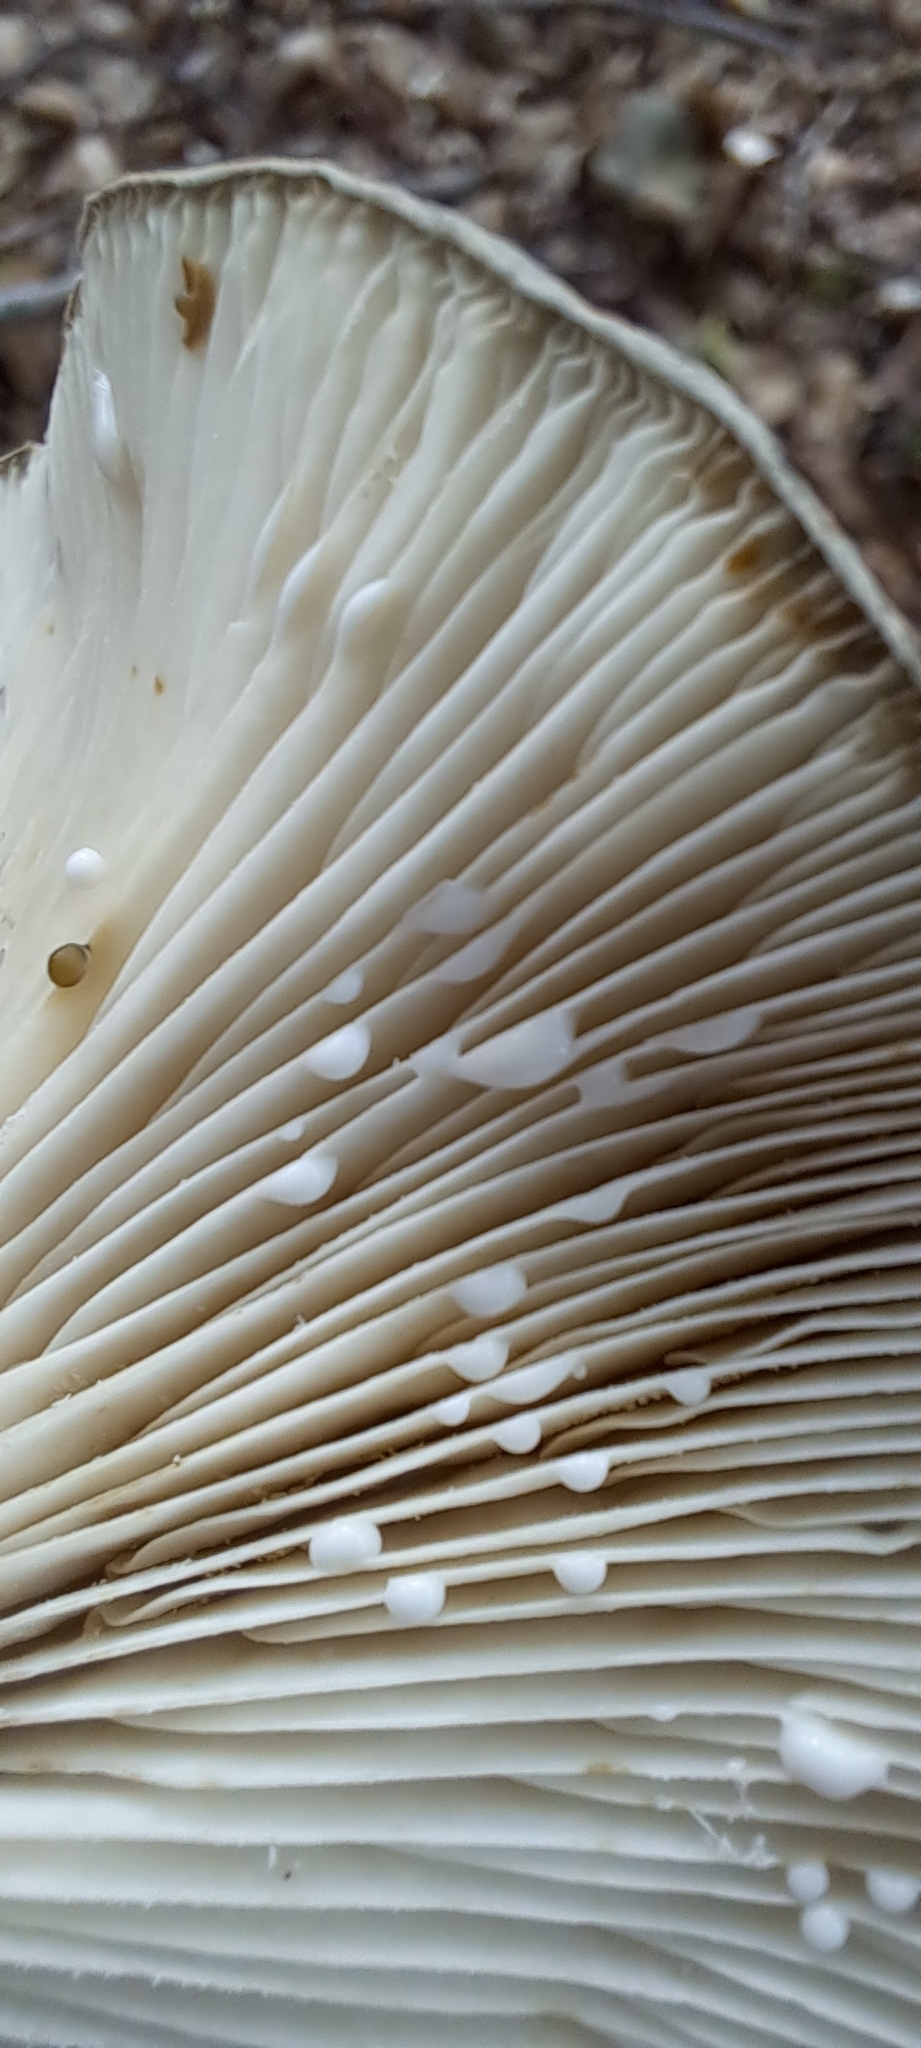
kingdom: Fungi
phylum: Basidiomycota
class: Agaricomycetes
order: Russulales
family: Russulaceae
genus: Lactarius
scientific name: Lactarius blennius
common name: Beech milkcap
